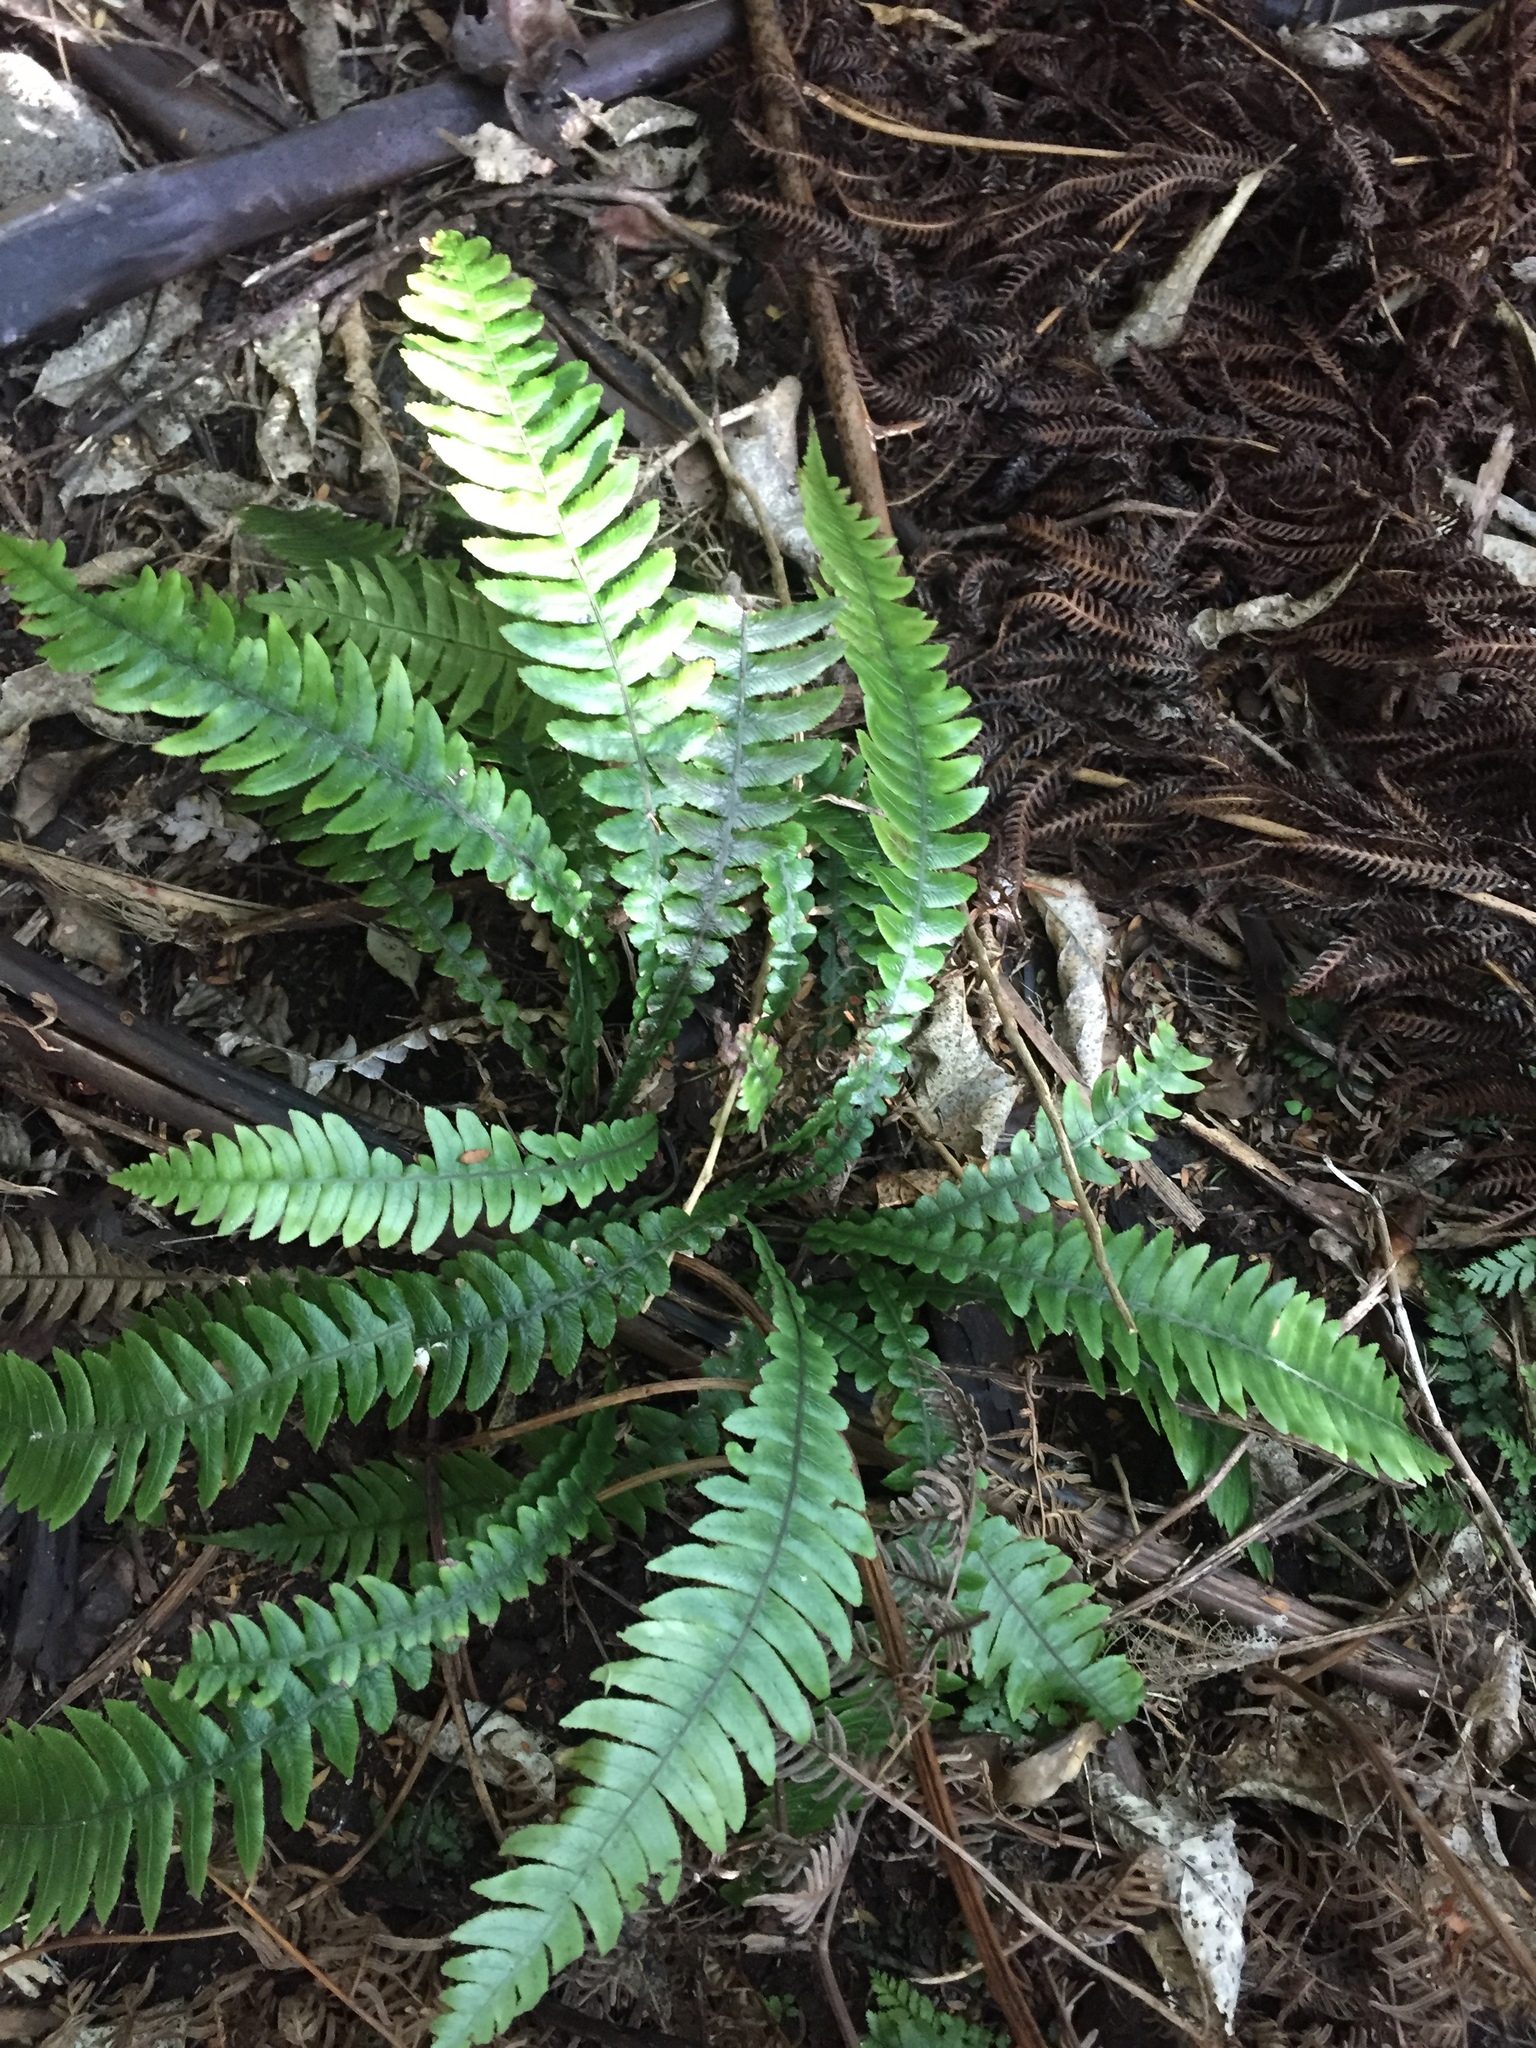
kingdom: Plantae
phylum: Tracheophyta
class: Polypodiopsida
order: Polypodiales
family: Blechnaceae
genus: Austroblechnum
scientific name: Austroblechnum lanceolatum
